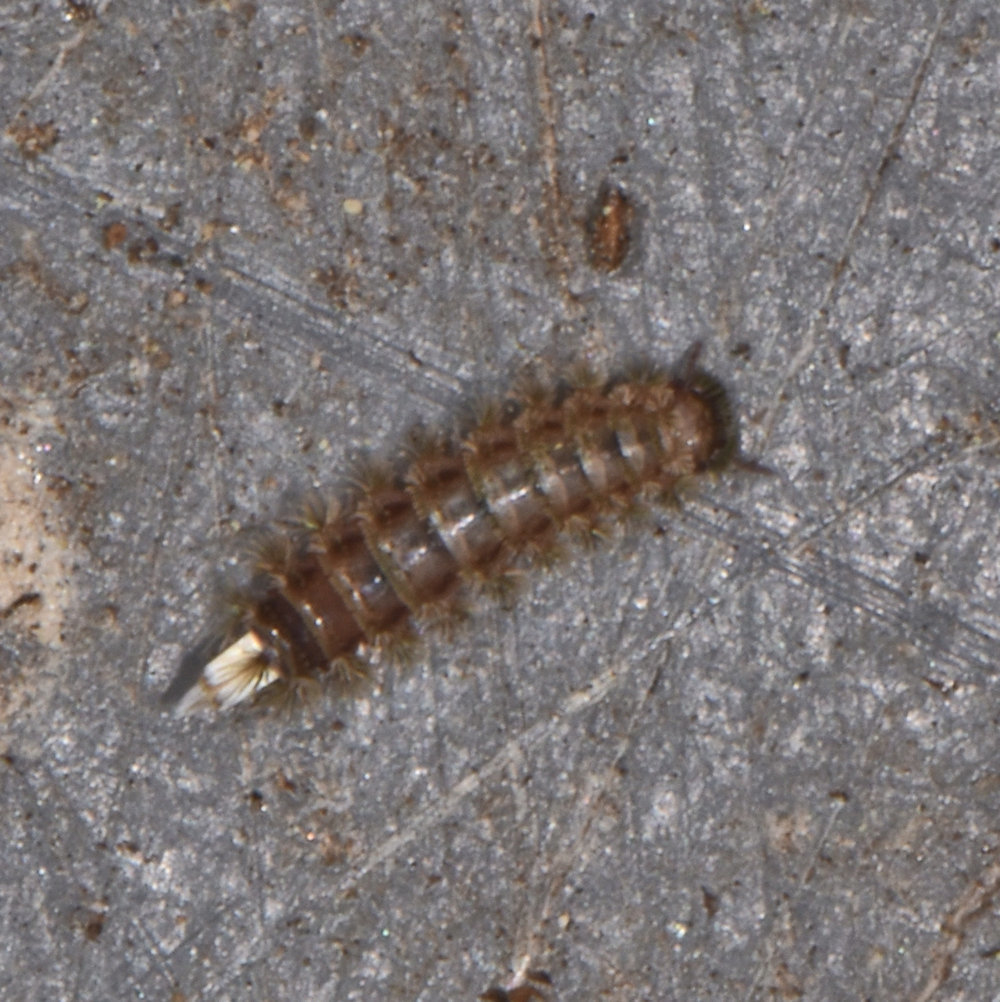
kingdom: Animalia
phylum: Arthropoda
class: Diplopoda
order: Polyxenida
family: Polyxenidae
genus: Polyxenus
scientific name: Polyxenus lagurus
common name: Bristly millipede
